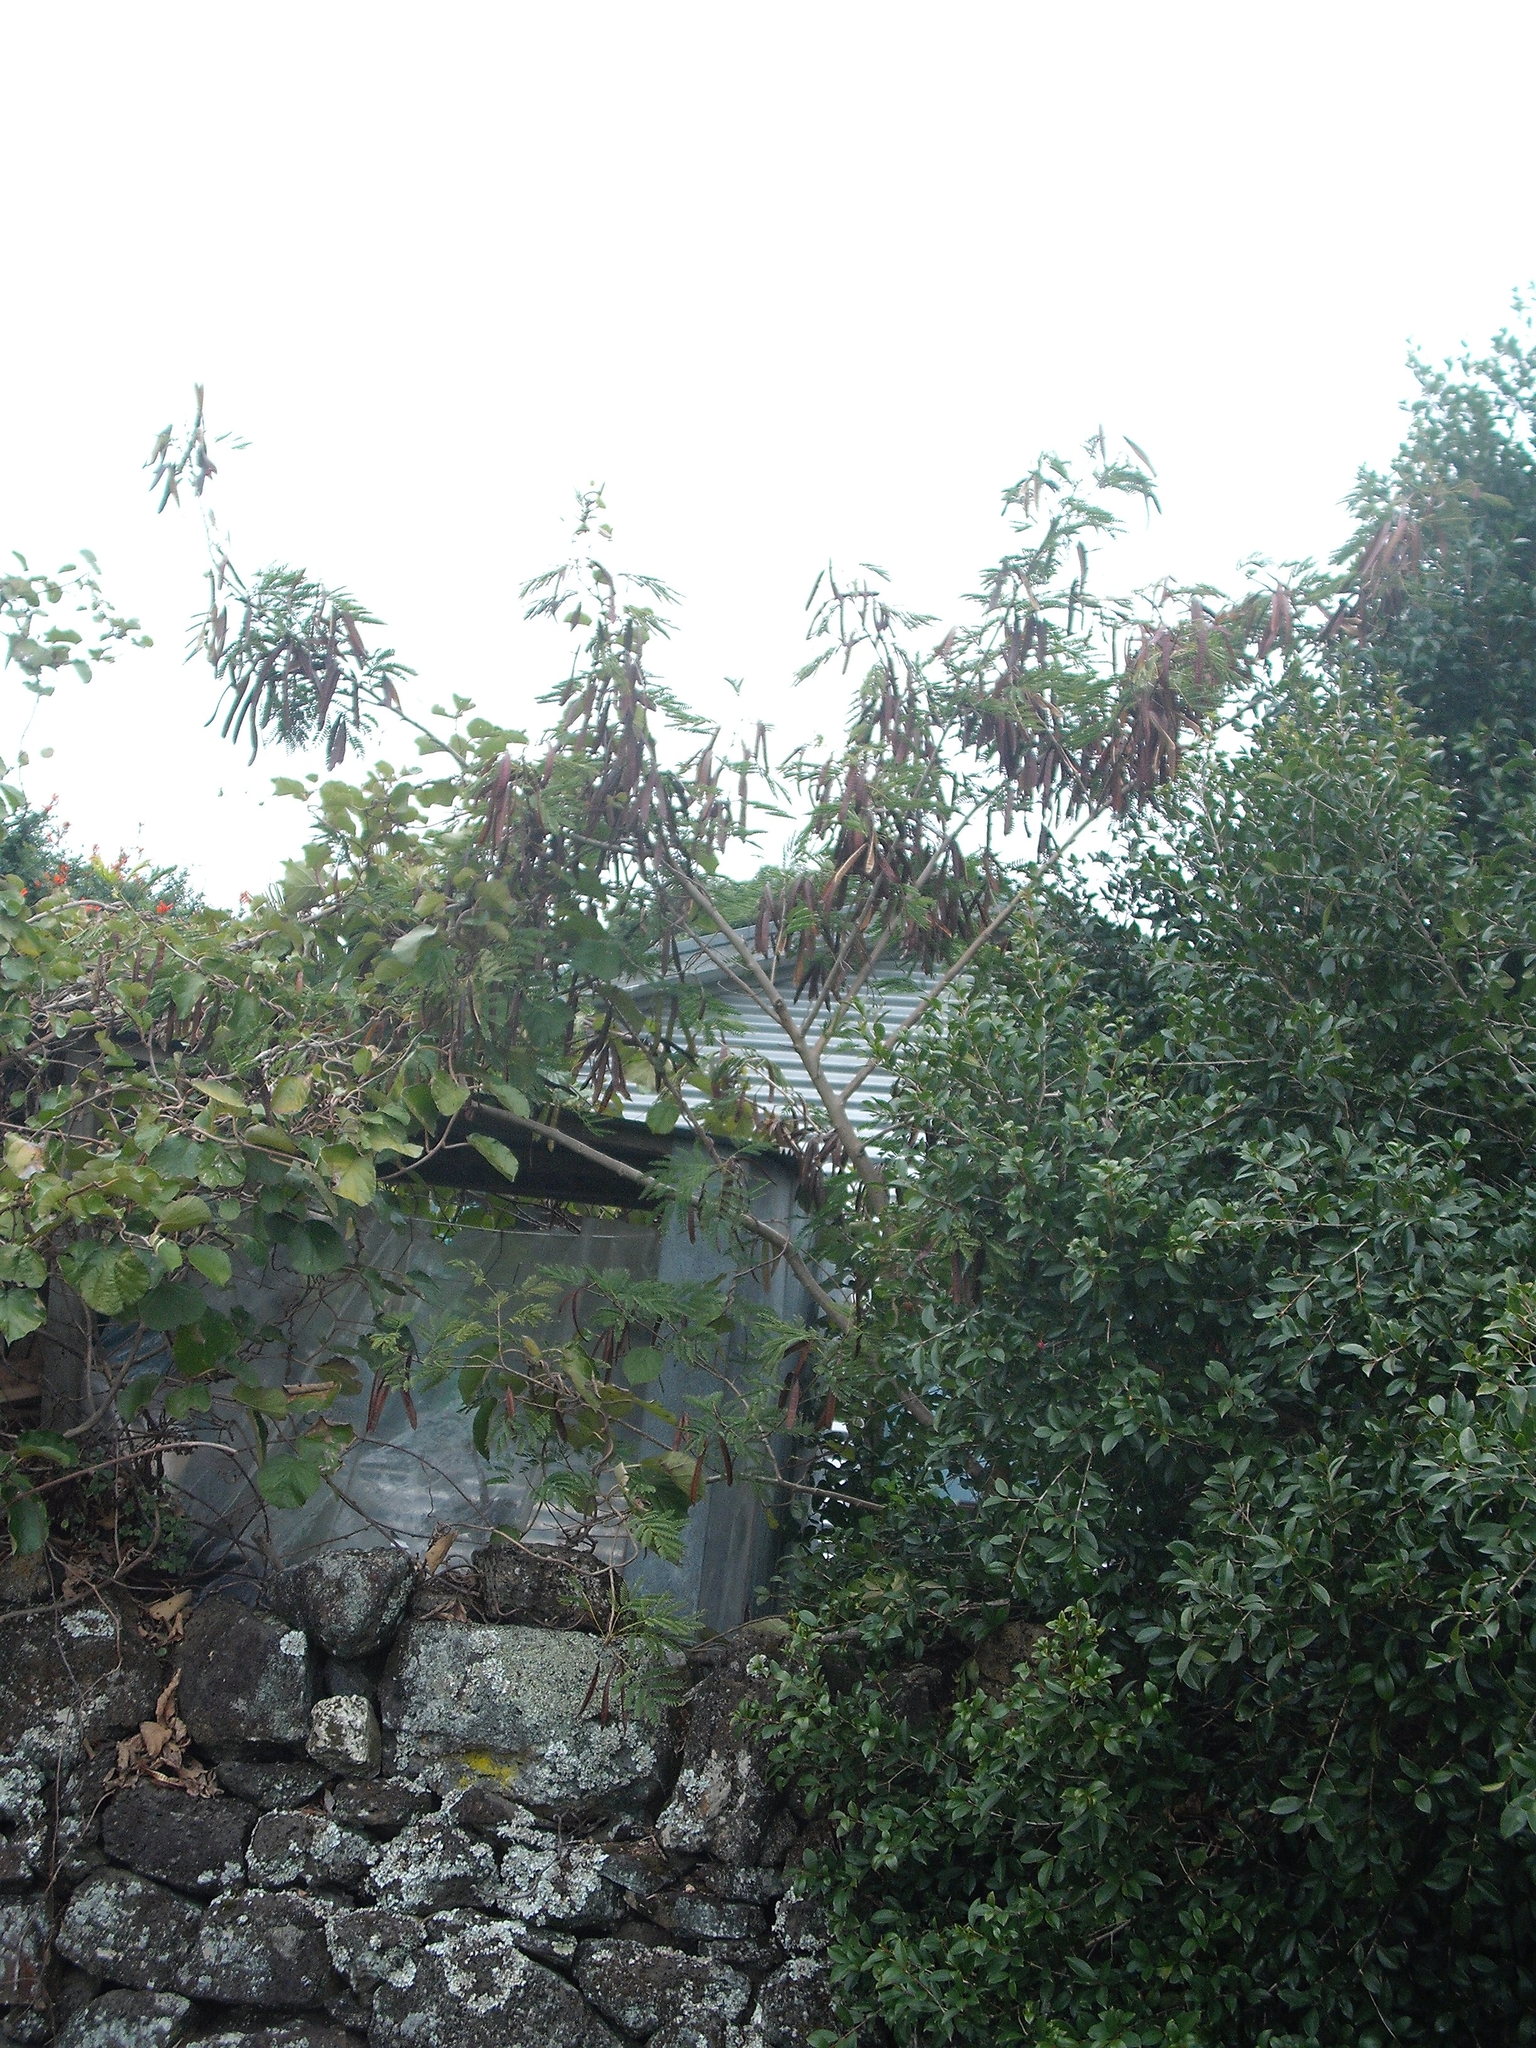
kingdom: Plantae
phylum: Tracheophyta
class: Magnoliopsida
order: Fabales
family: Fabaceae
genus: Leucaena
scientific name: Leucaena leucocephala
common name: White leadtree
